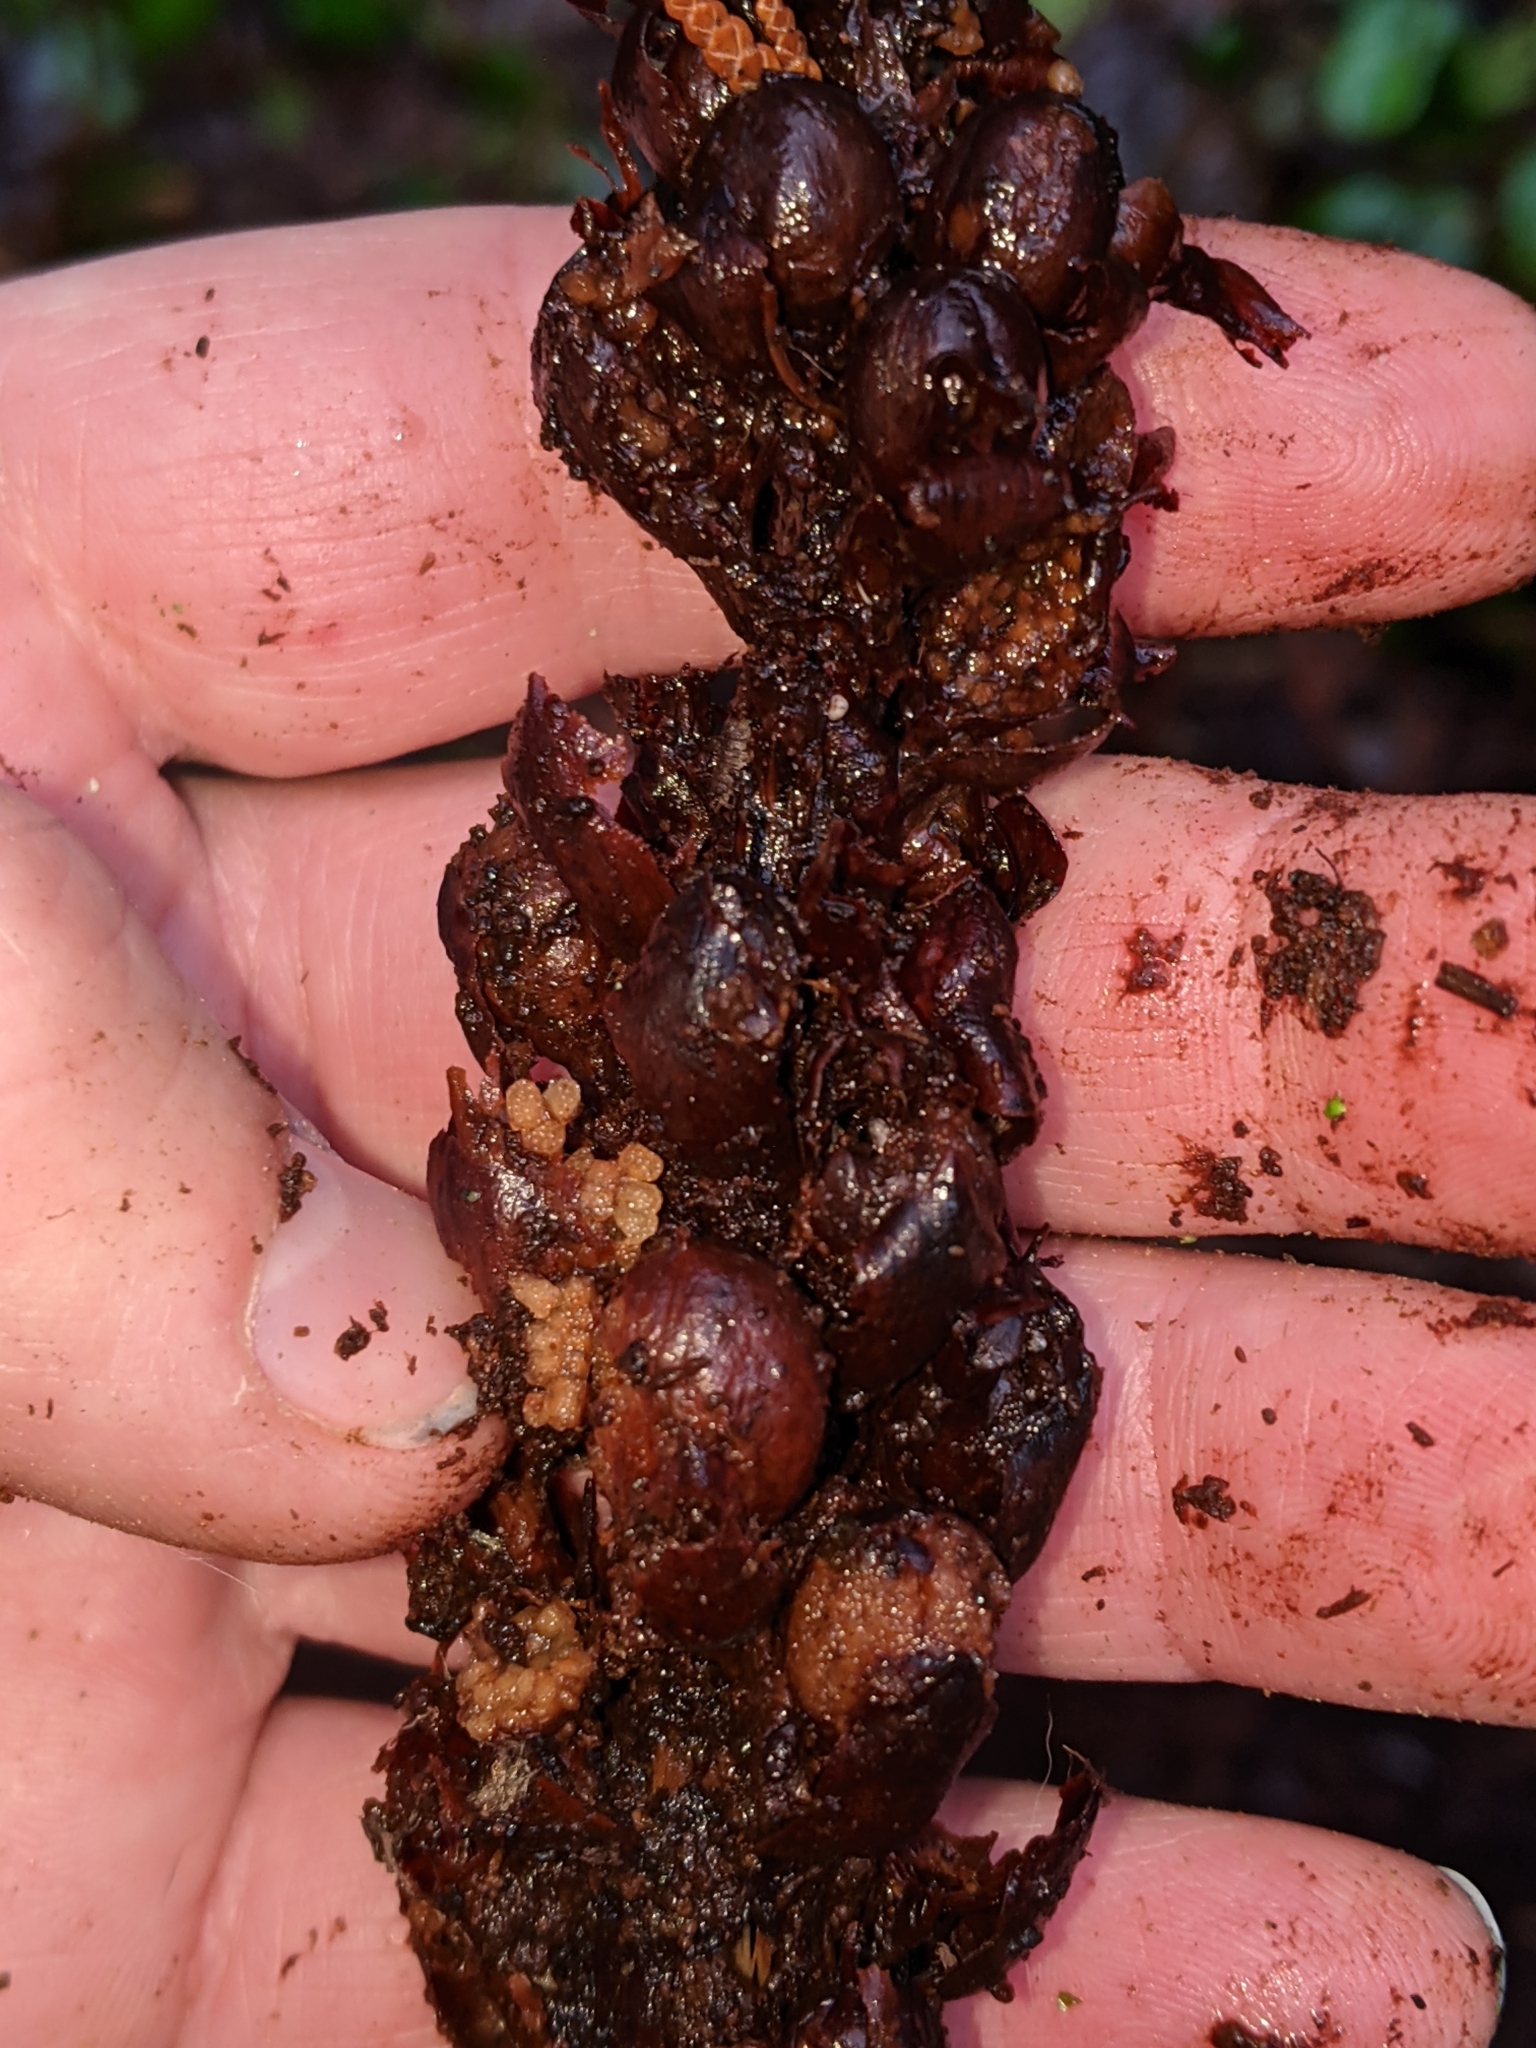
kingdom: Plantae
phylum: Tracheophyta
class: Magnoliopsida
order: Lamiales
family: Orobanchaceae
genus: Kopsiopsis
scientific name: Kopsiopsis hookeri
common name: Hooker's groundcone
